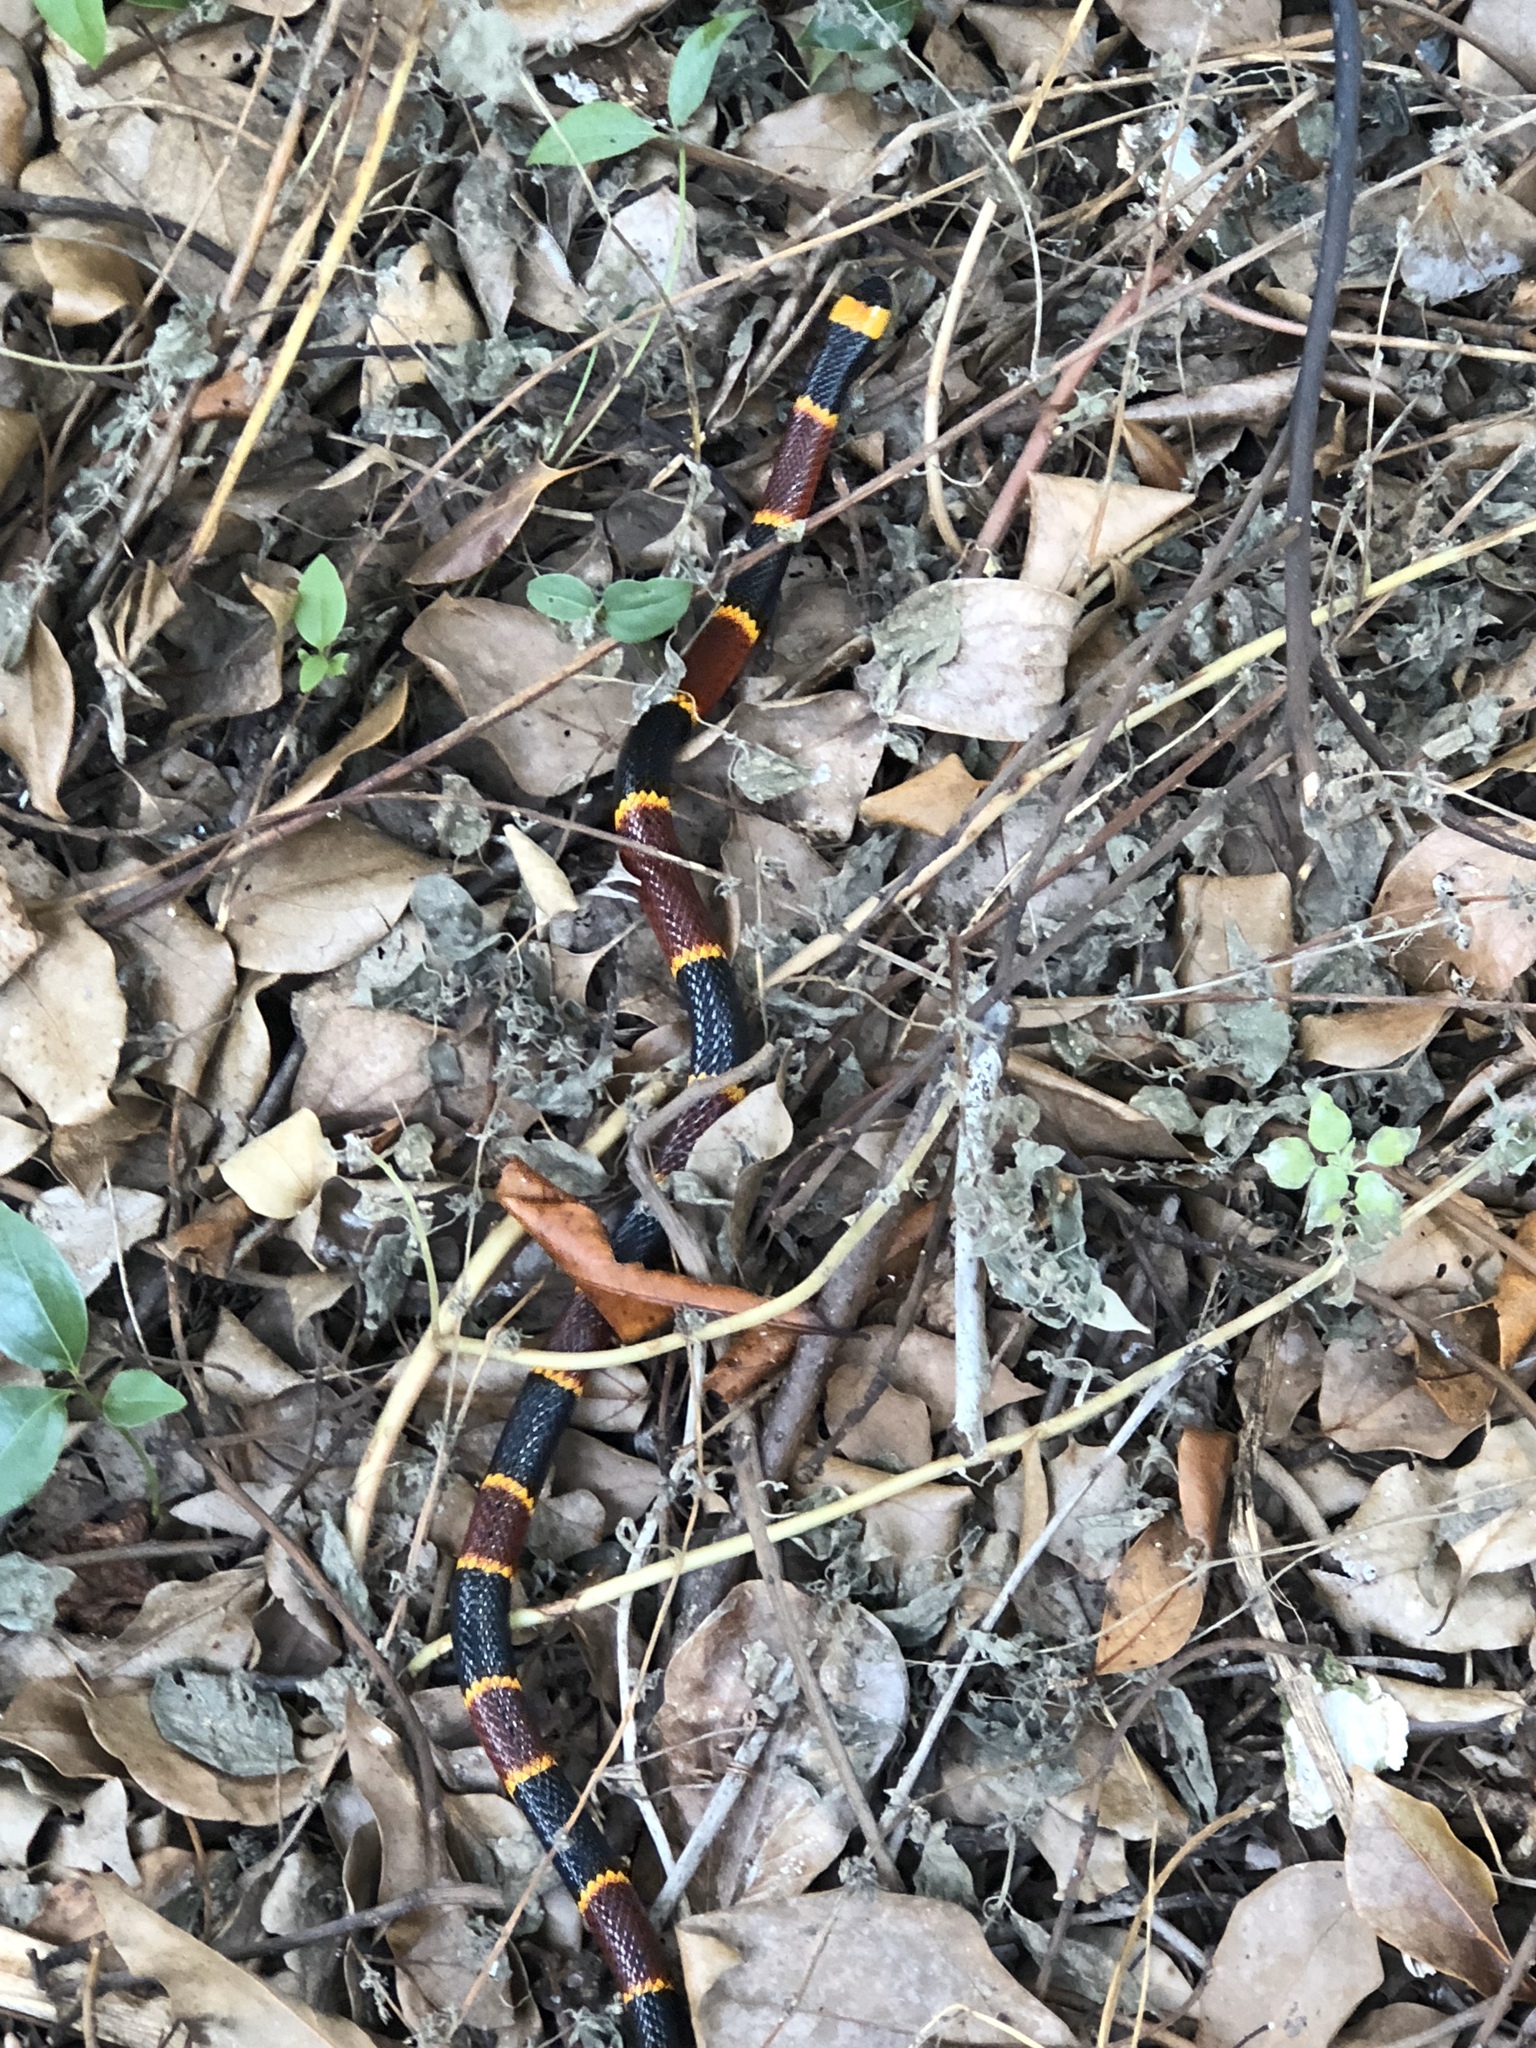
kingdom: Animalia
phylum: Chordata
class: Squamata
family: Elapidae
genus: Micrurus
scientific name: Micrurus fulvius
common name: Eastern coral snake
